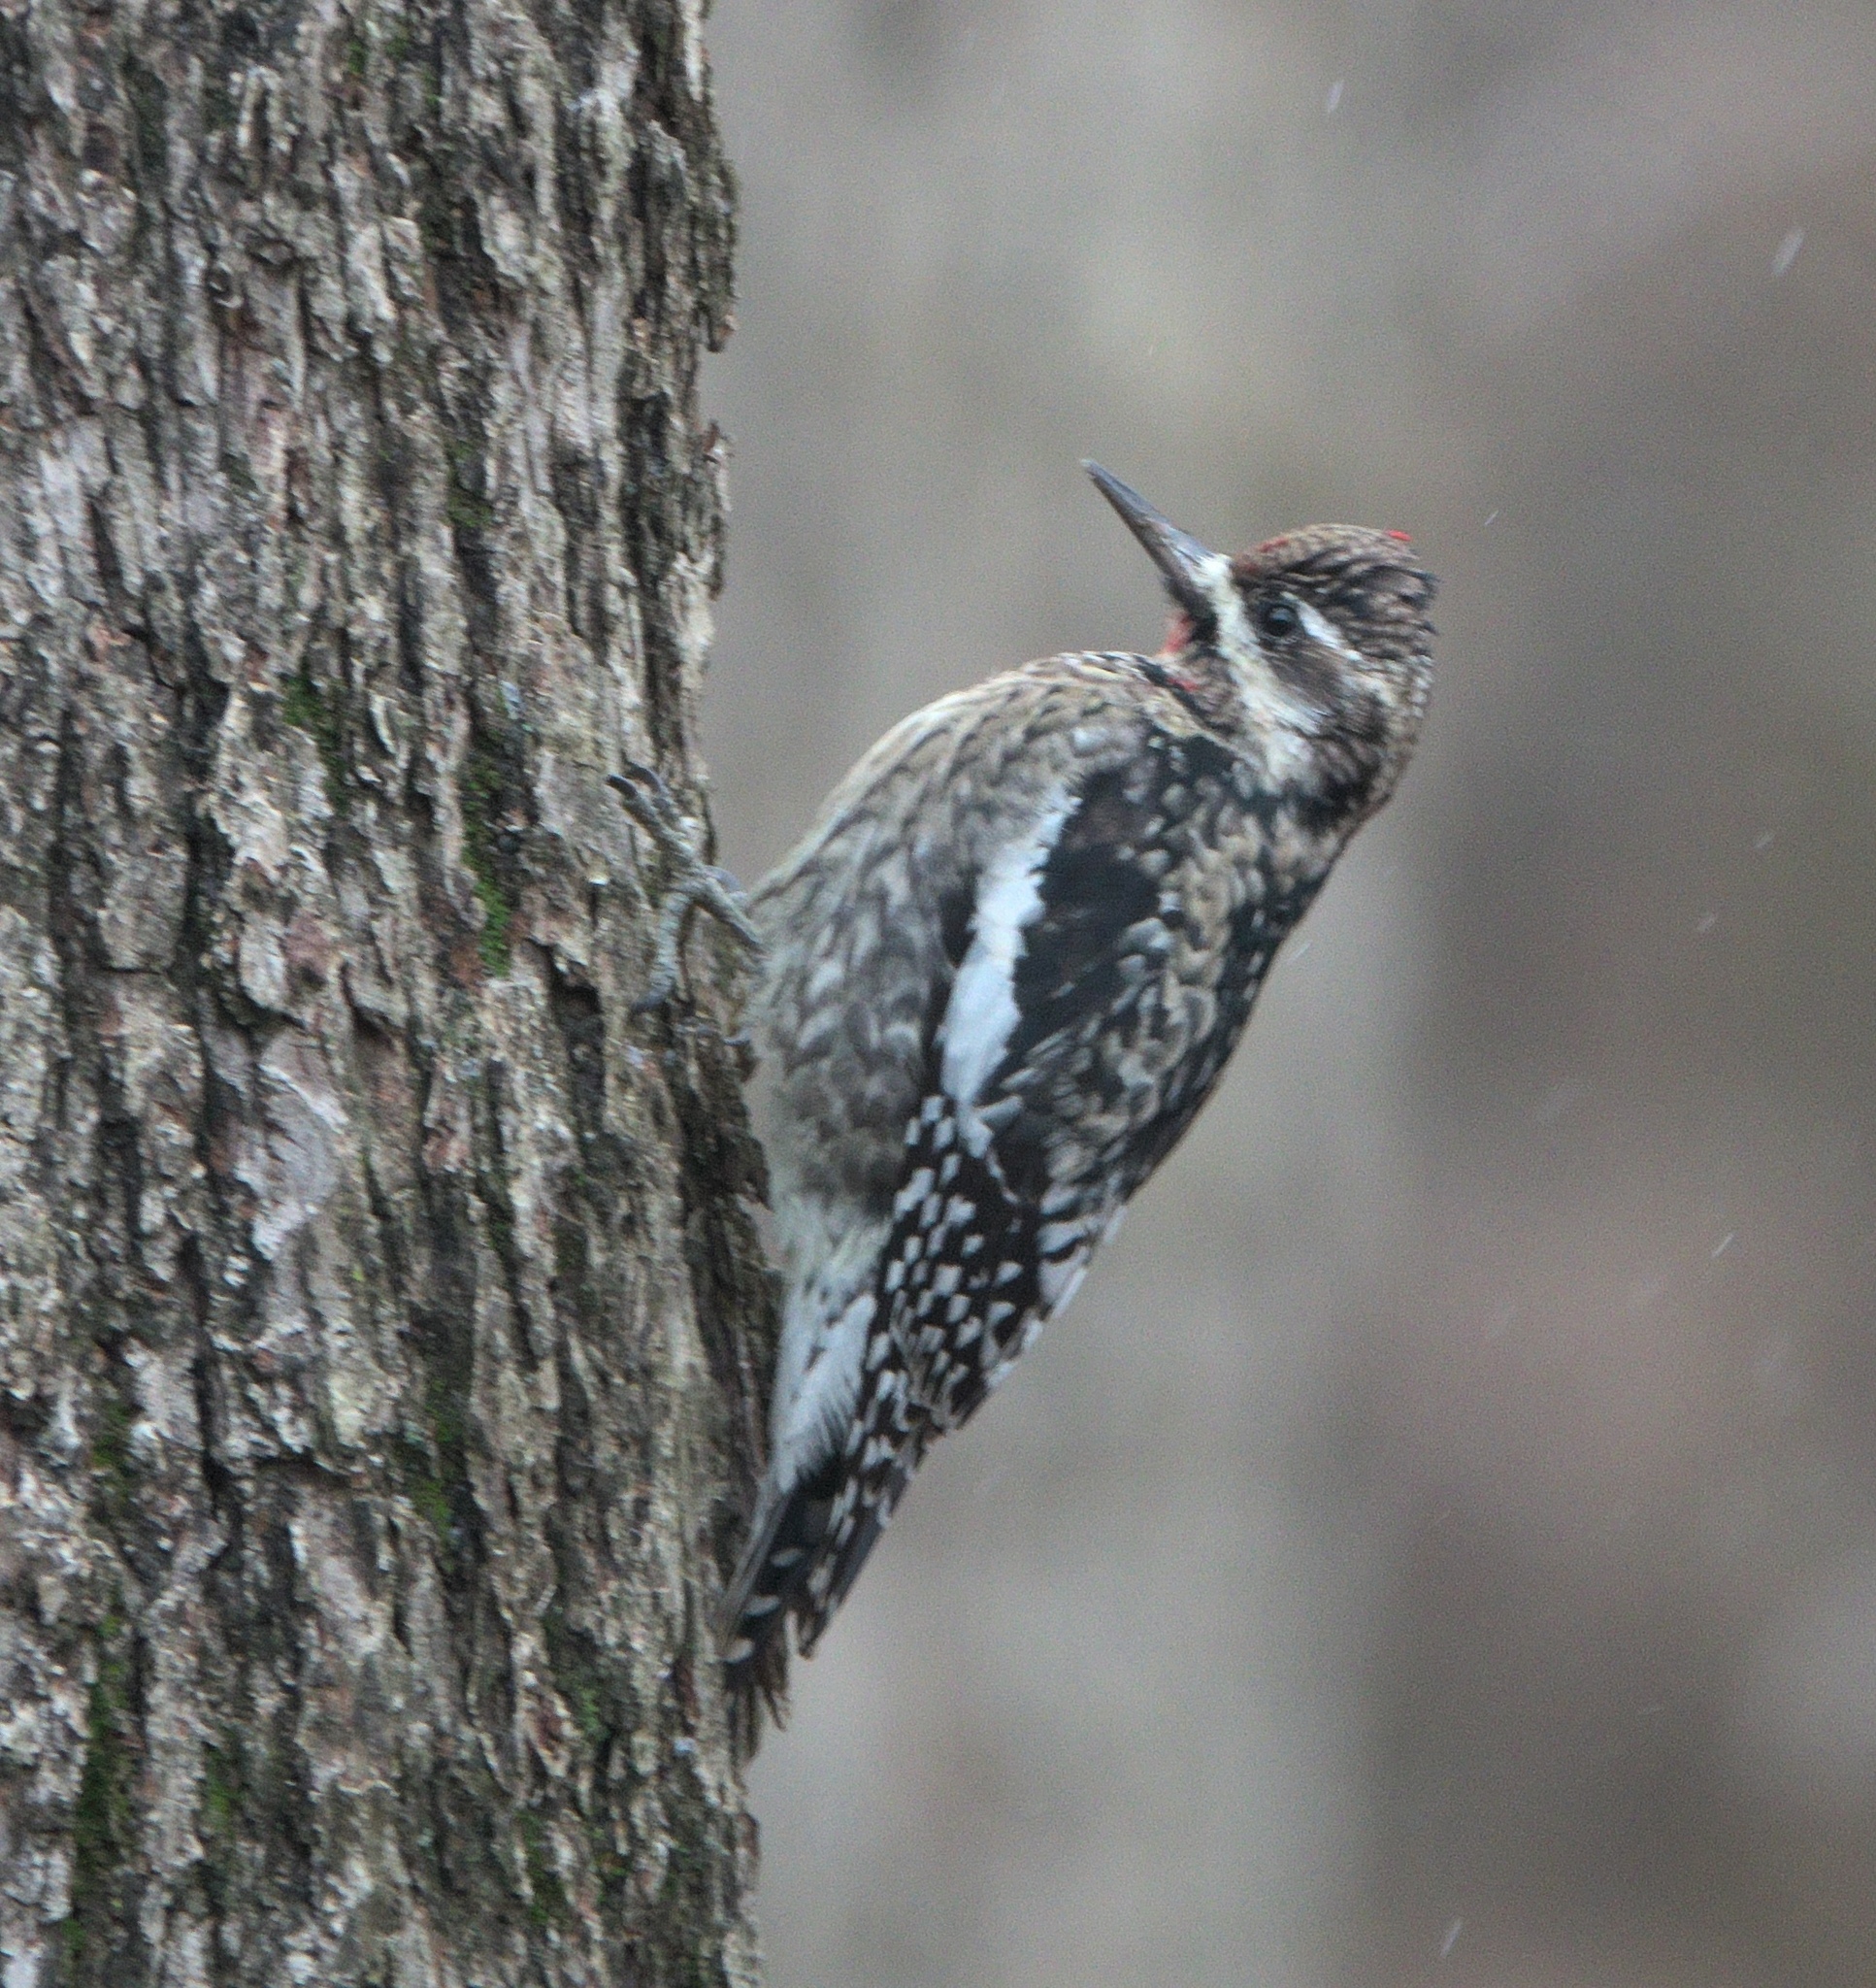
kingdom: Animalia
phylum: Chordata
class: Aves
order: Piciformes
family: Picidae
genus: Sphyrapicus
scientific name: Sphyrapicus varius
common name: Yellow-bellied sapsucker
